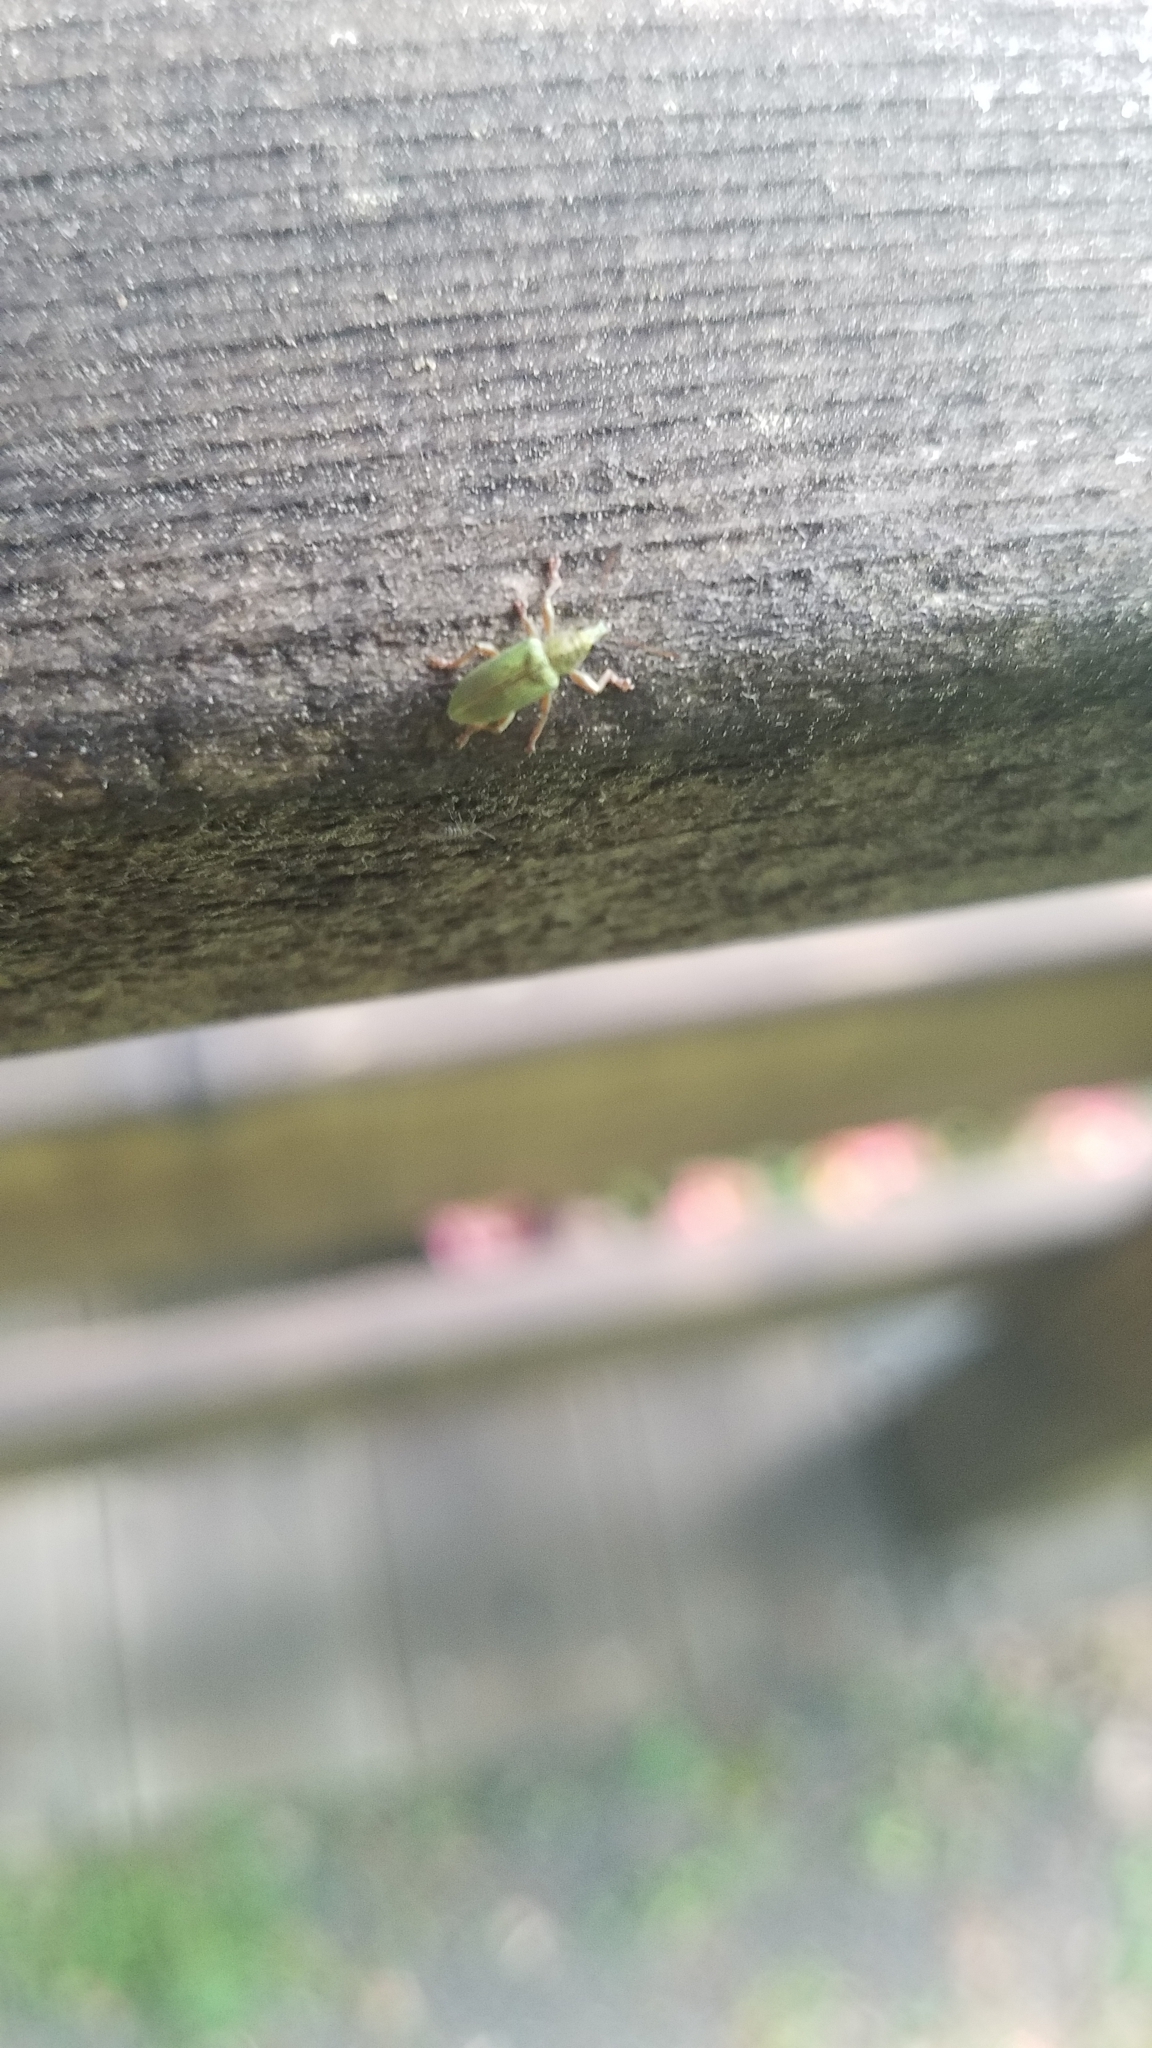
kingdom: Animalia
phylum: Arthropoda
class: Insecta
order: Coleoptera
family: Curculionidae
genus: Polydrusus
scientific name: Polydrusus formosus
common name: Weevil
